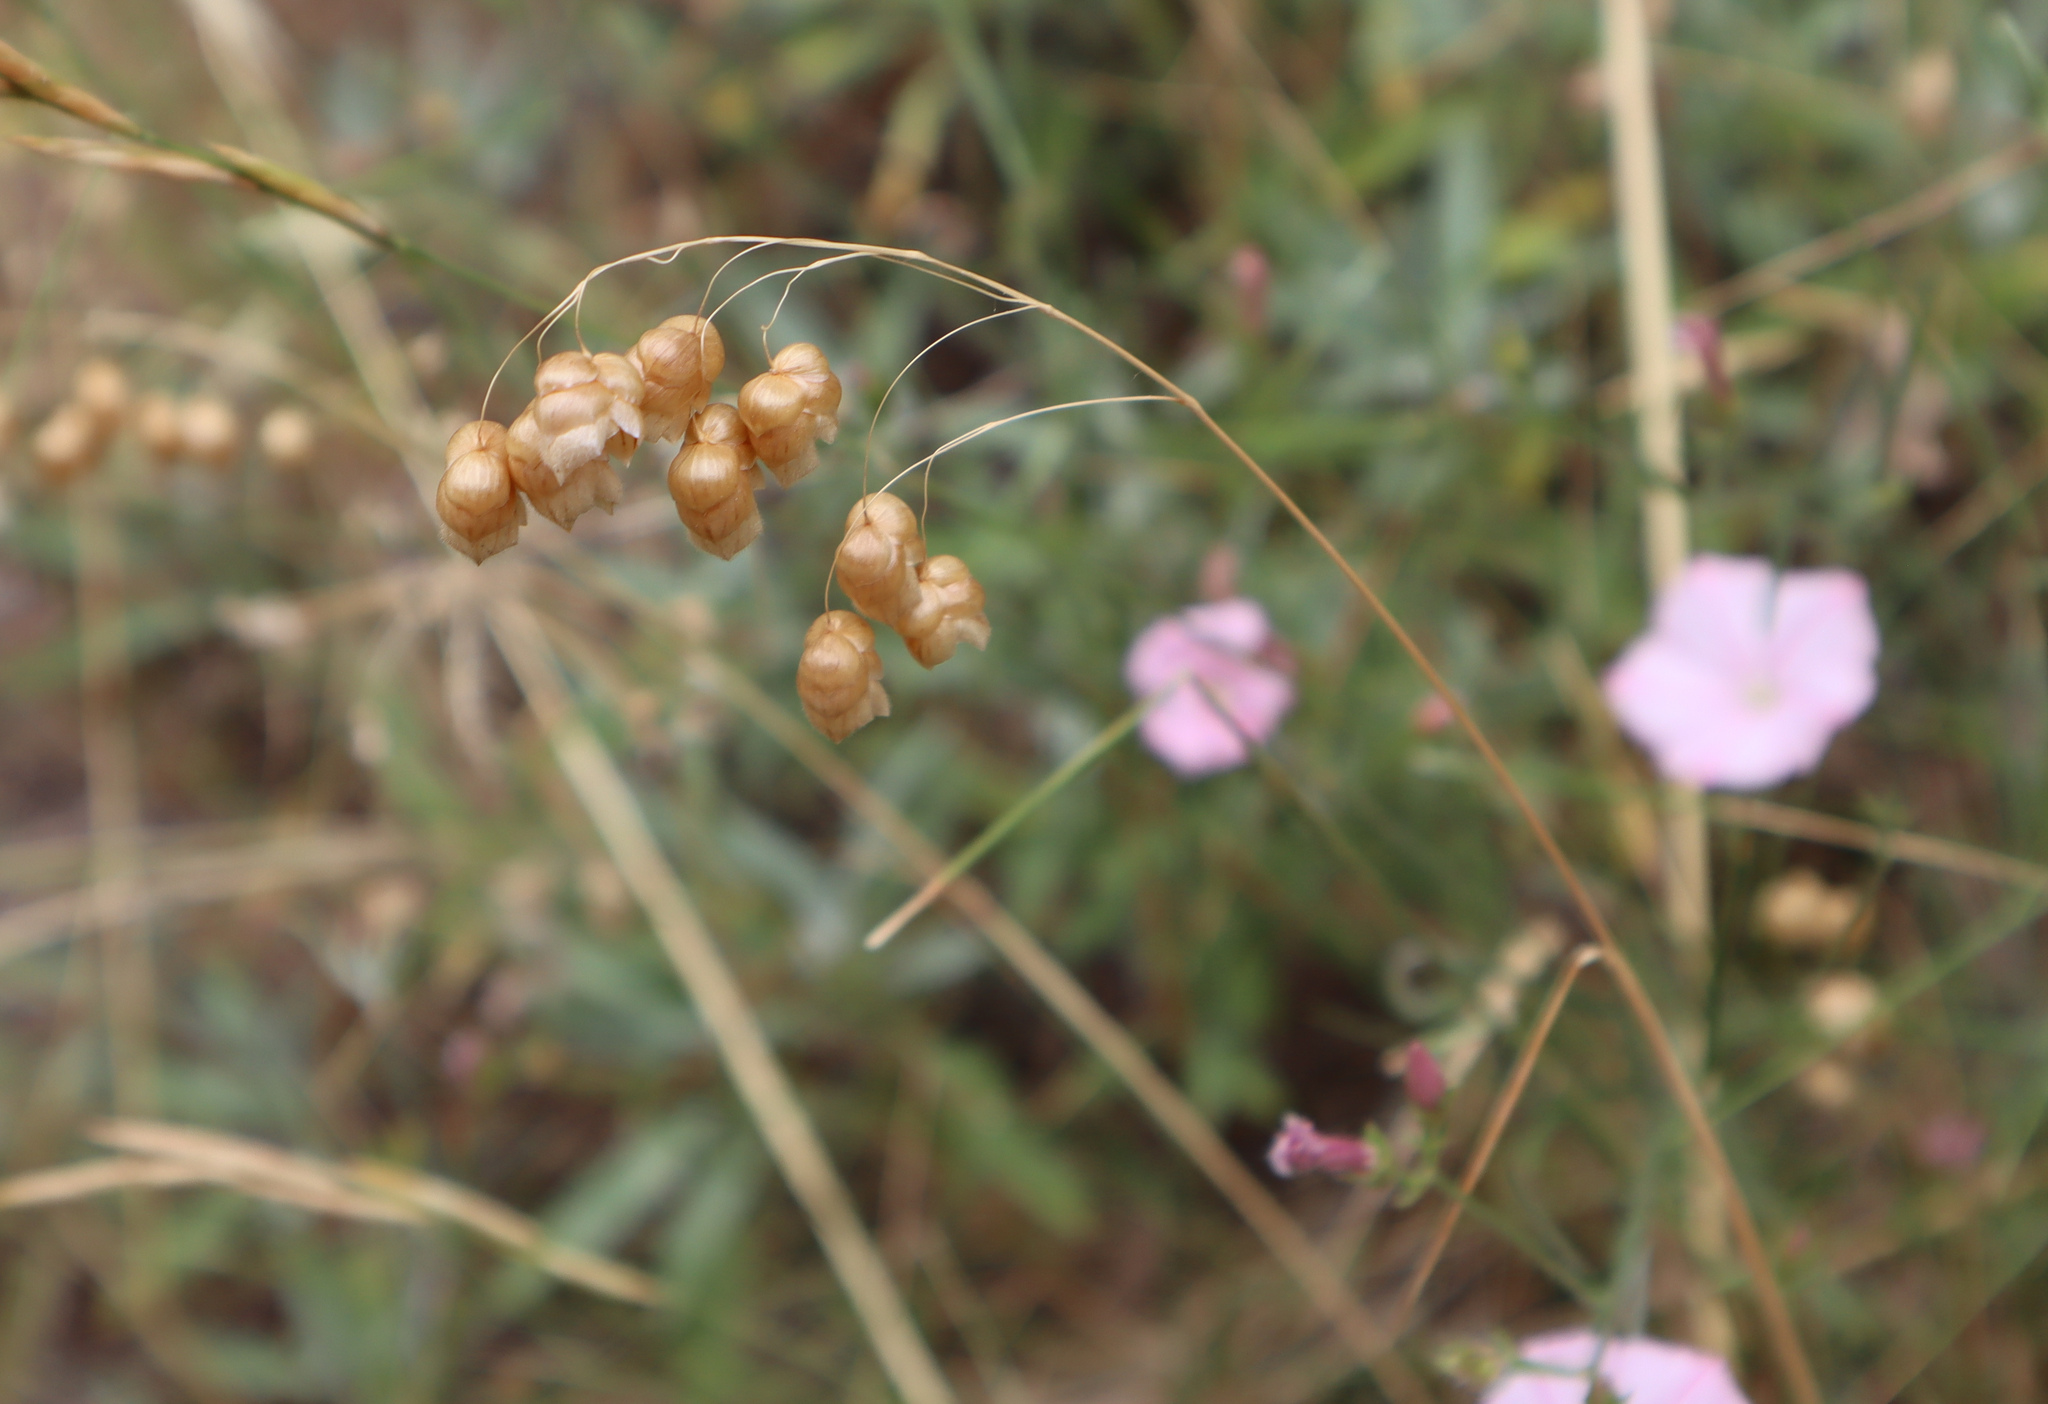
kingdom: Plantae
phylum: Tracheophyta
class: Liliopsida
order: Poales
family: Poaceae
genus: Briza
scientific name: Briza maxima
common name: Big quakinggrass
